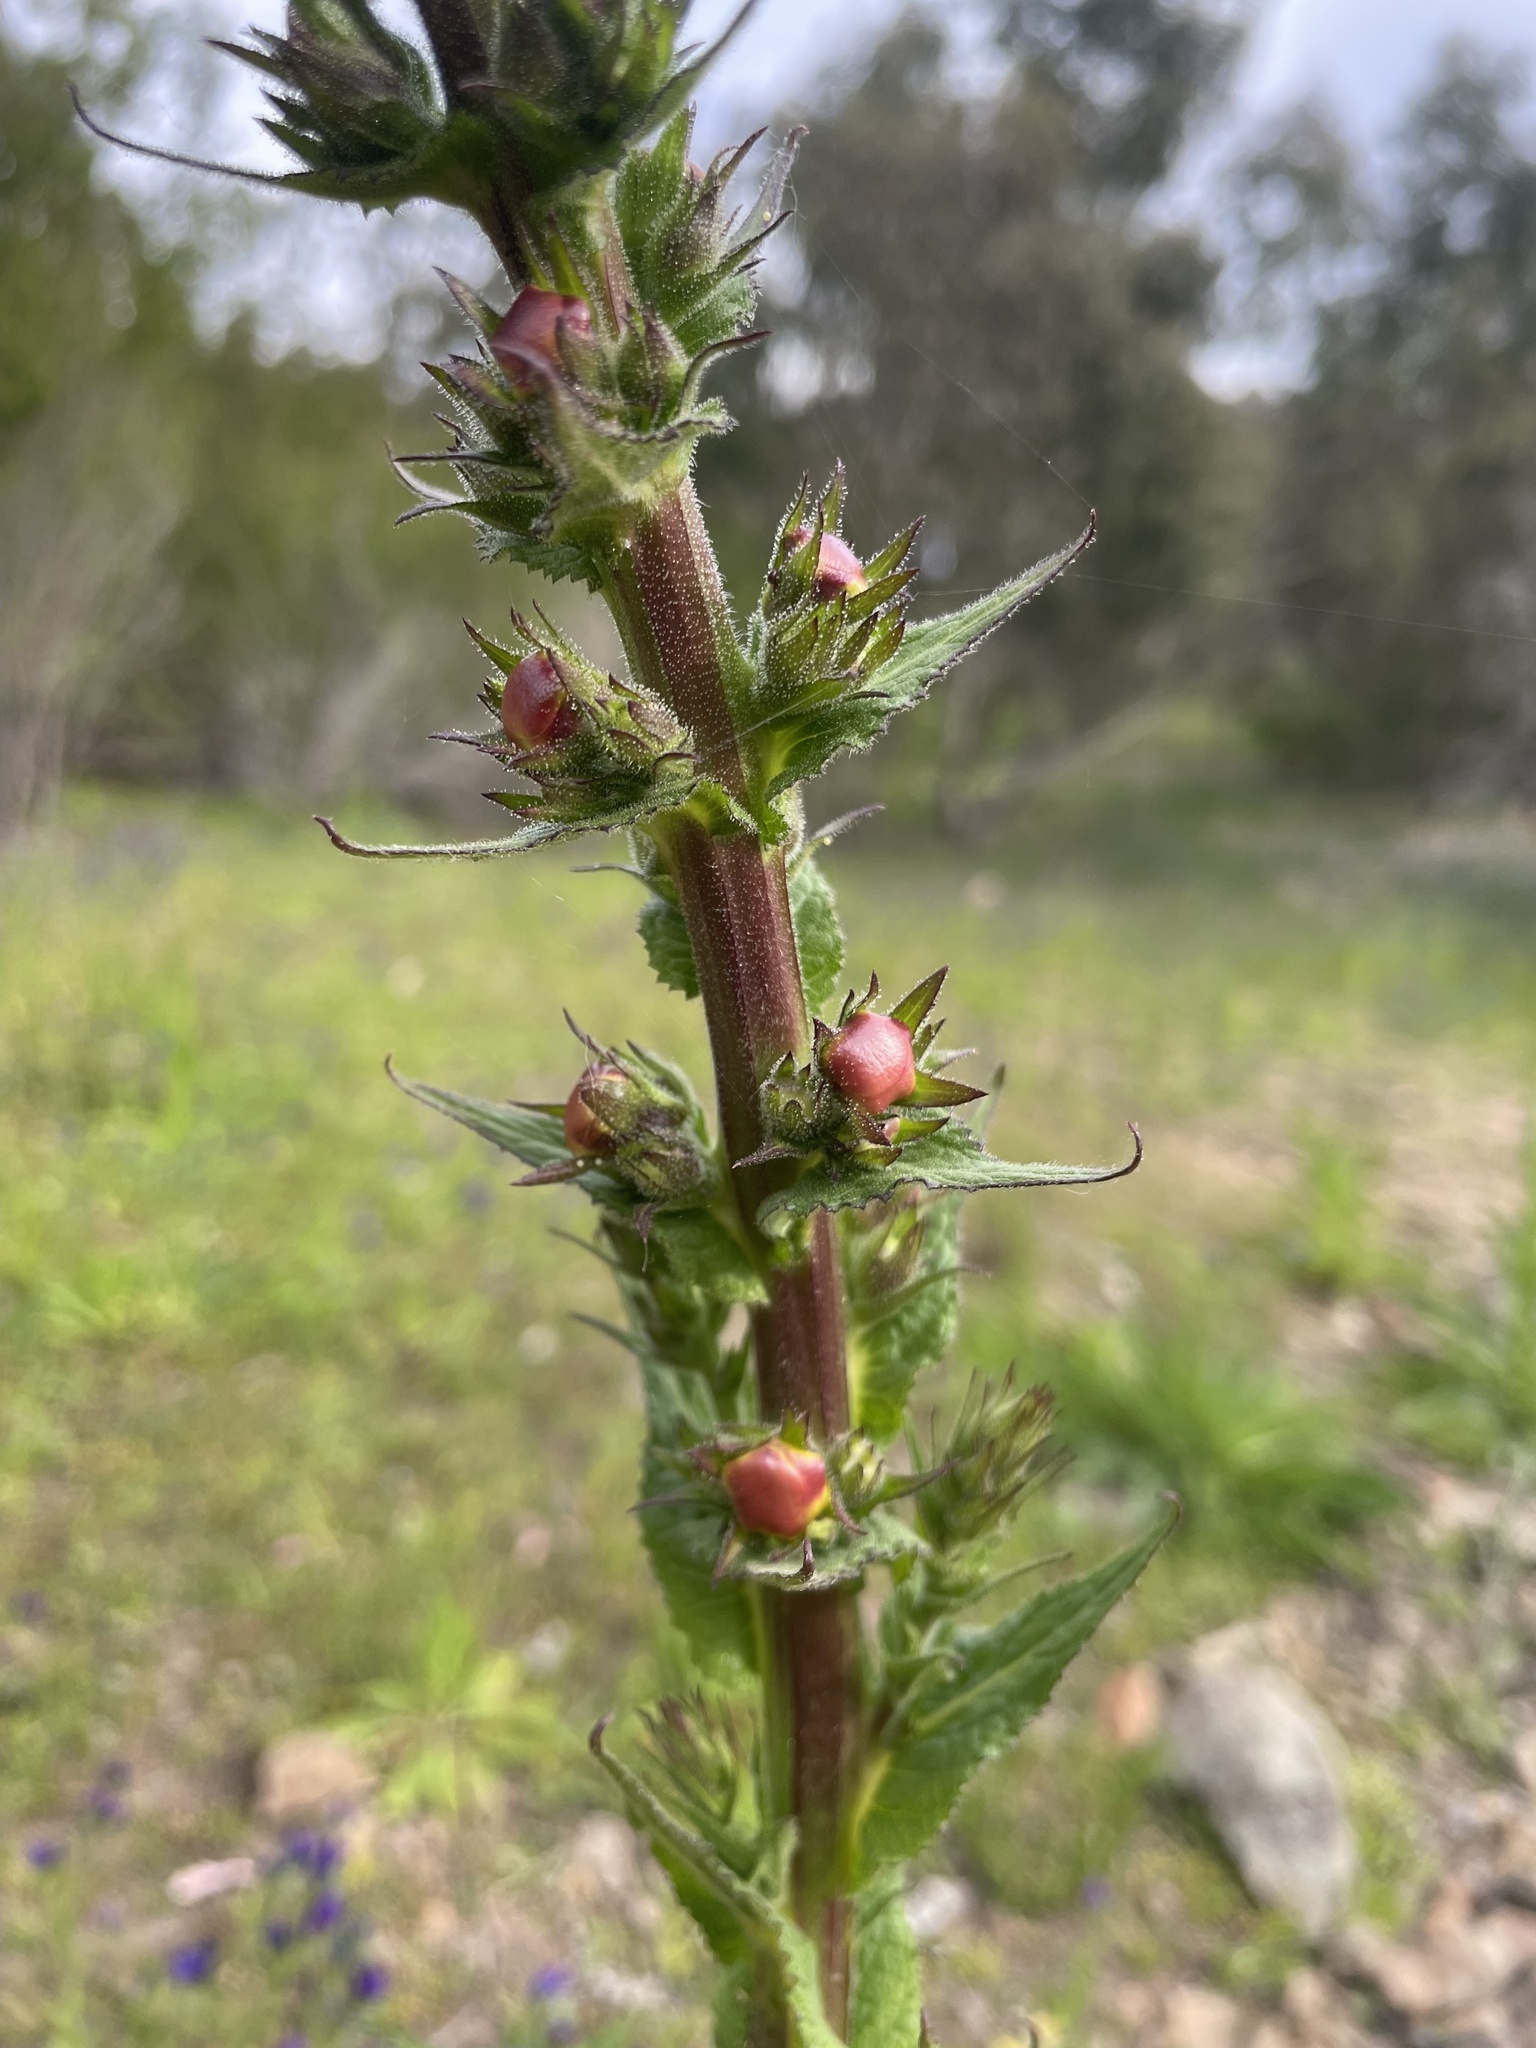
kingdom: Plantae
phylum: Tracheophyta
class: Magnoliopsida
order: Lamiales
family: Scrophulariaceae
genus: Verbascum
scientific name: Verbascum virgatum
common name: Twiggy mullein
